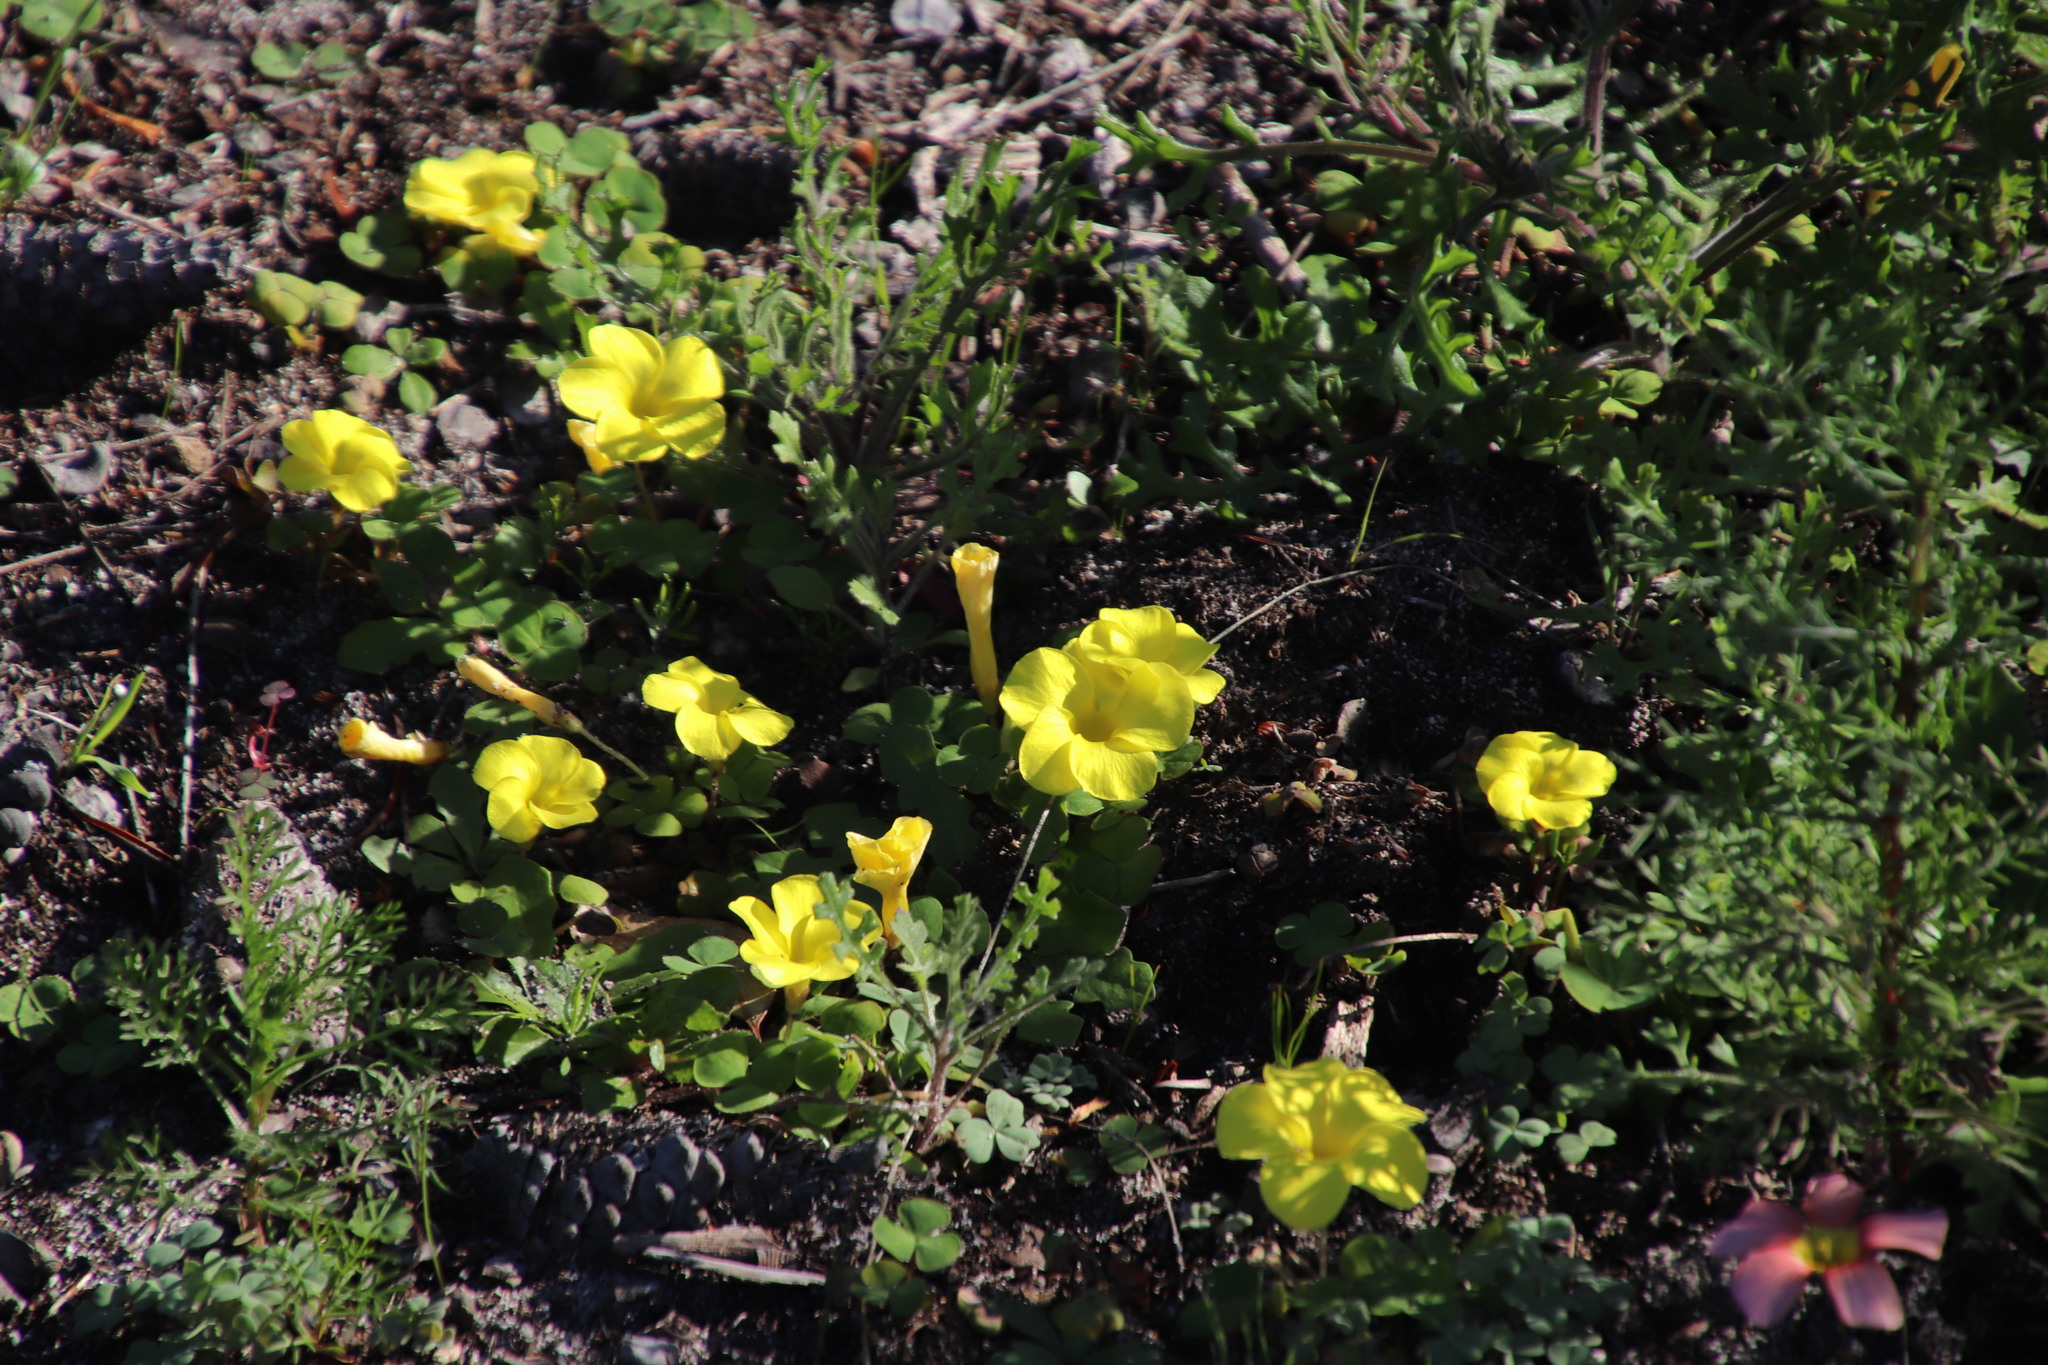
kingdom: Plantae
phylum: Tracheophyta
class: Magnoliopsida
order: Oxalidales
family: Oxalidaceae
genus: Oxalis
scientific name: Oxalis luteola
